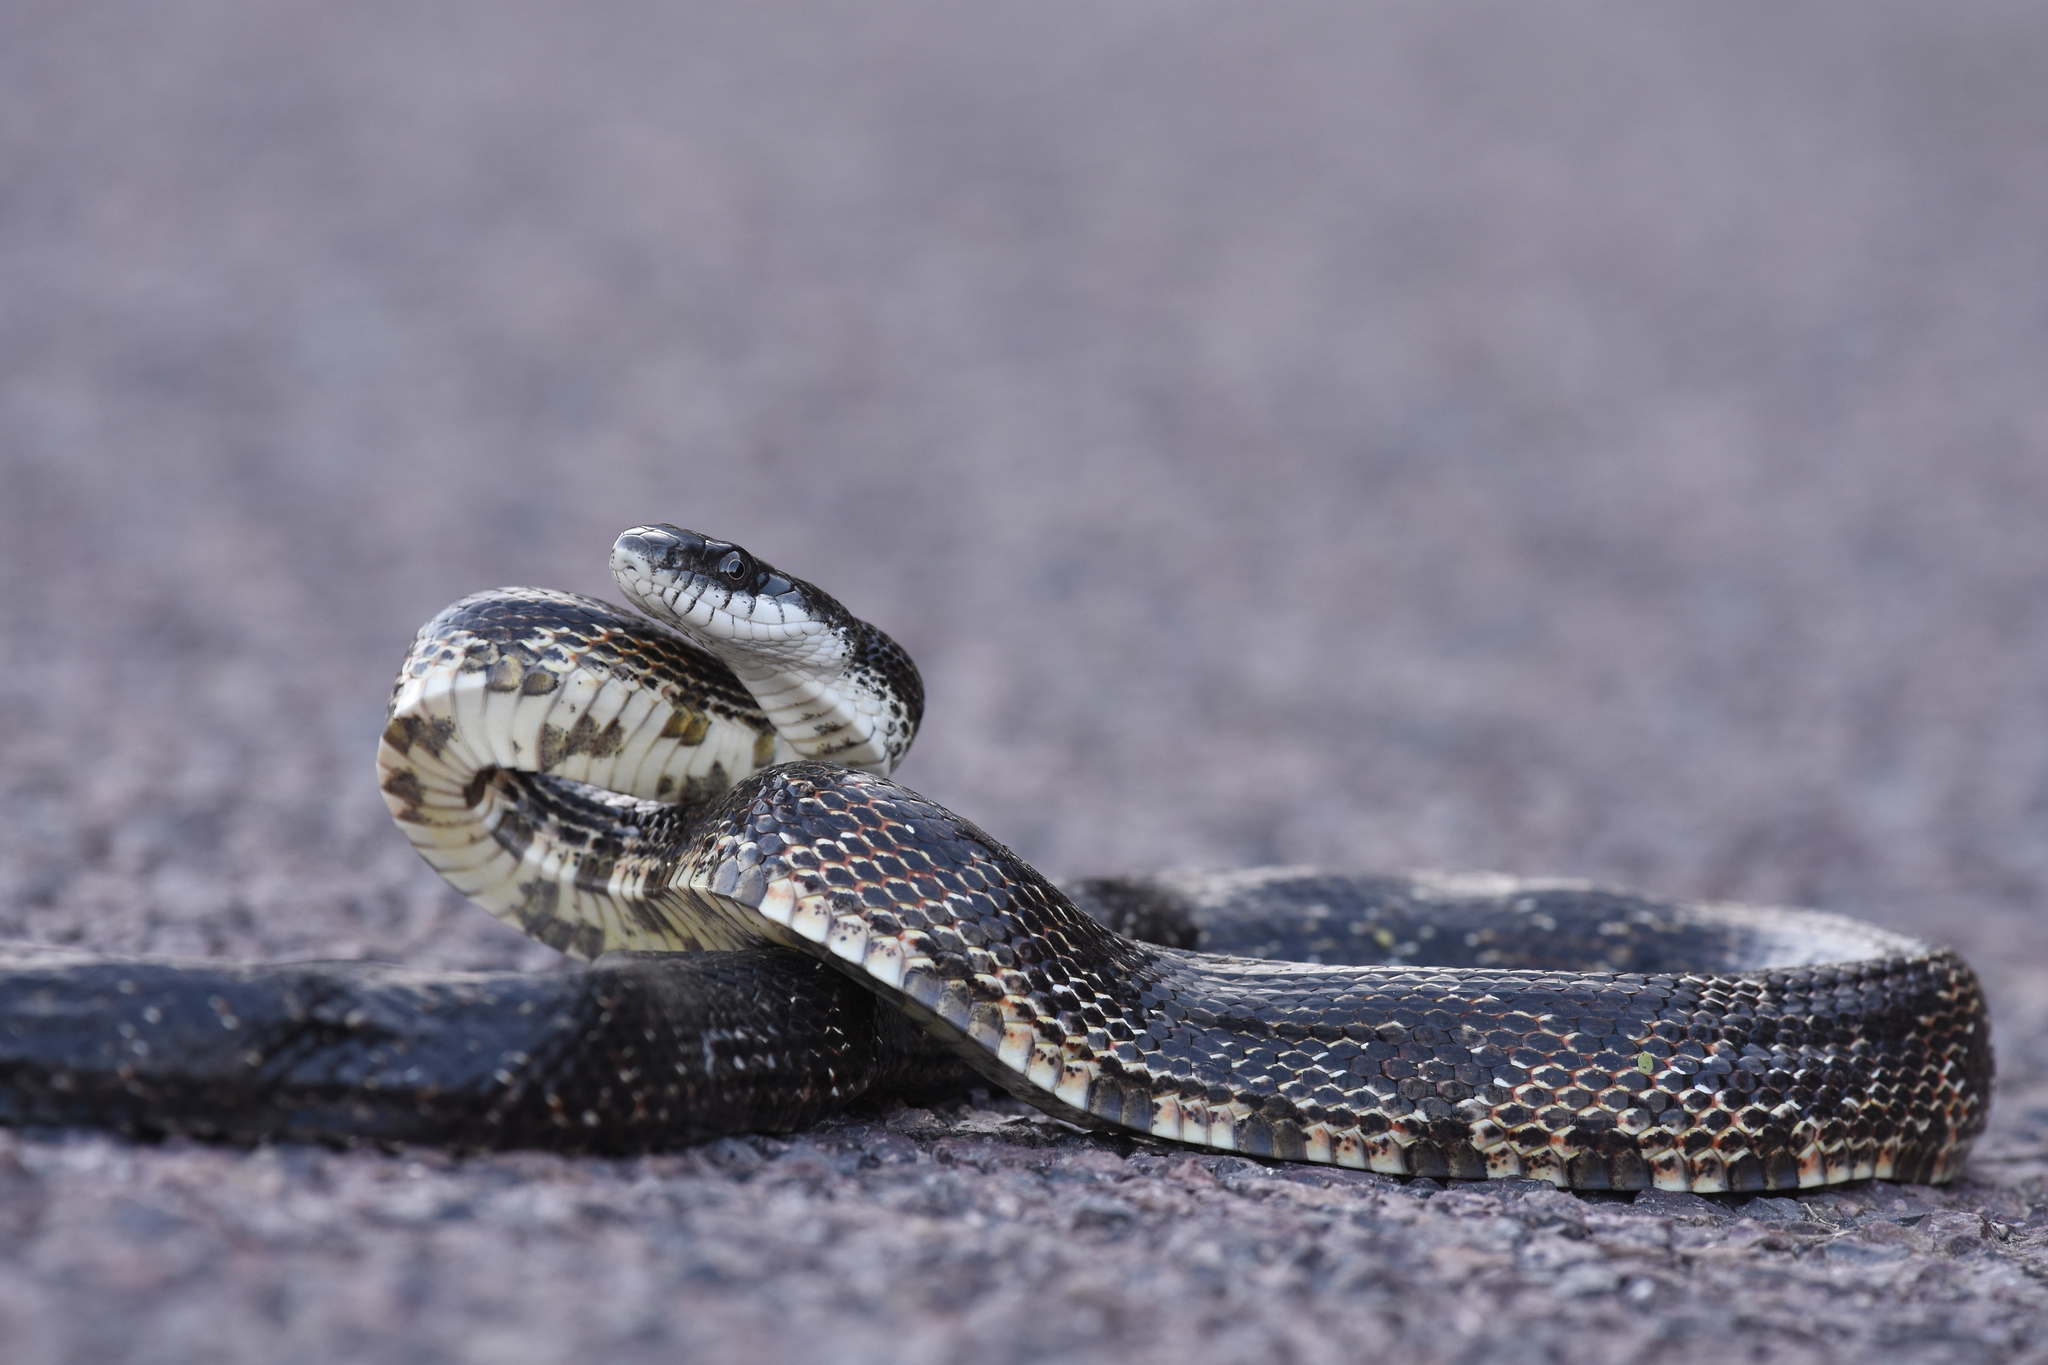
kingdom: Animalia
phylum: Chordata
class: Squamata
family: Colubridae
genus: Pantherophis
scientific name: Pantherophis obsoletus
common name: Black rat snake
